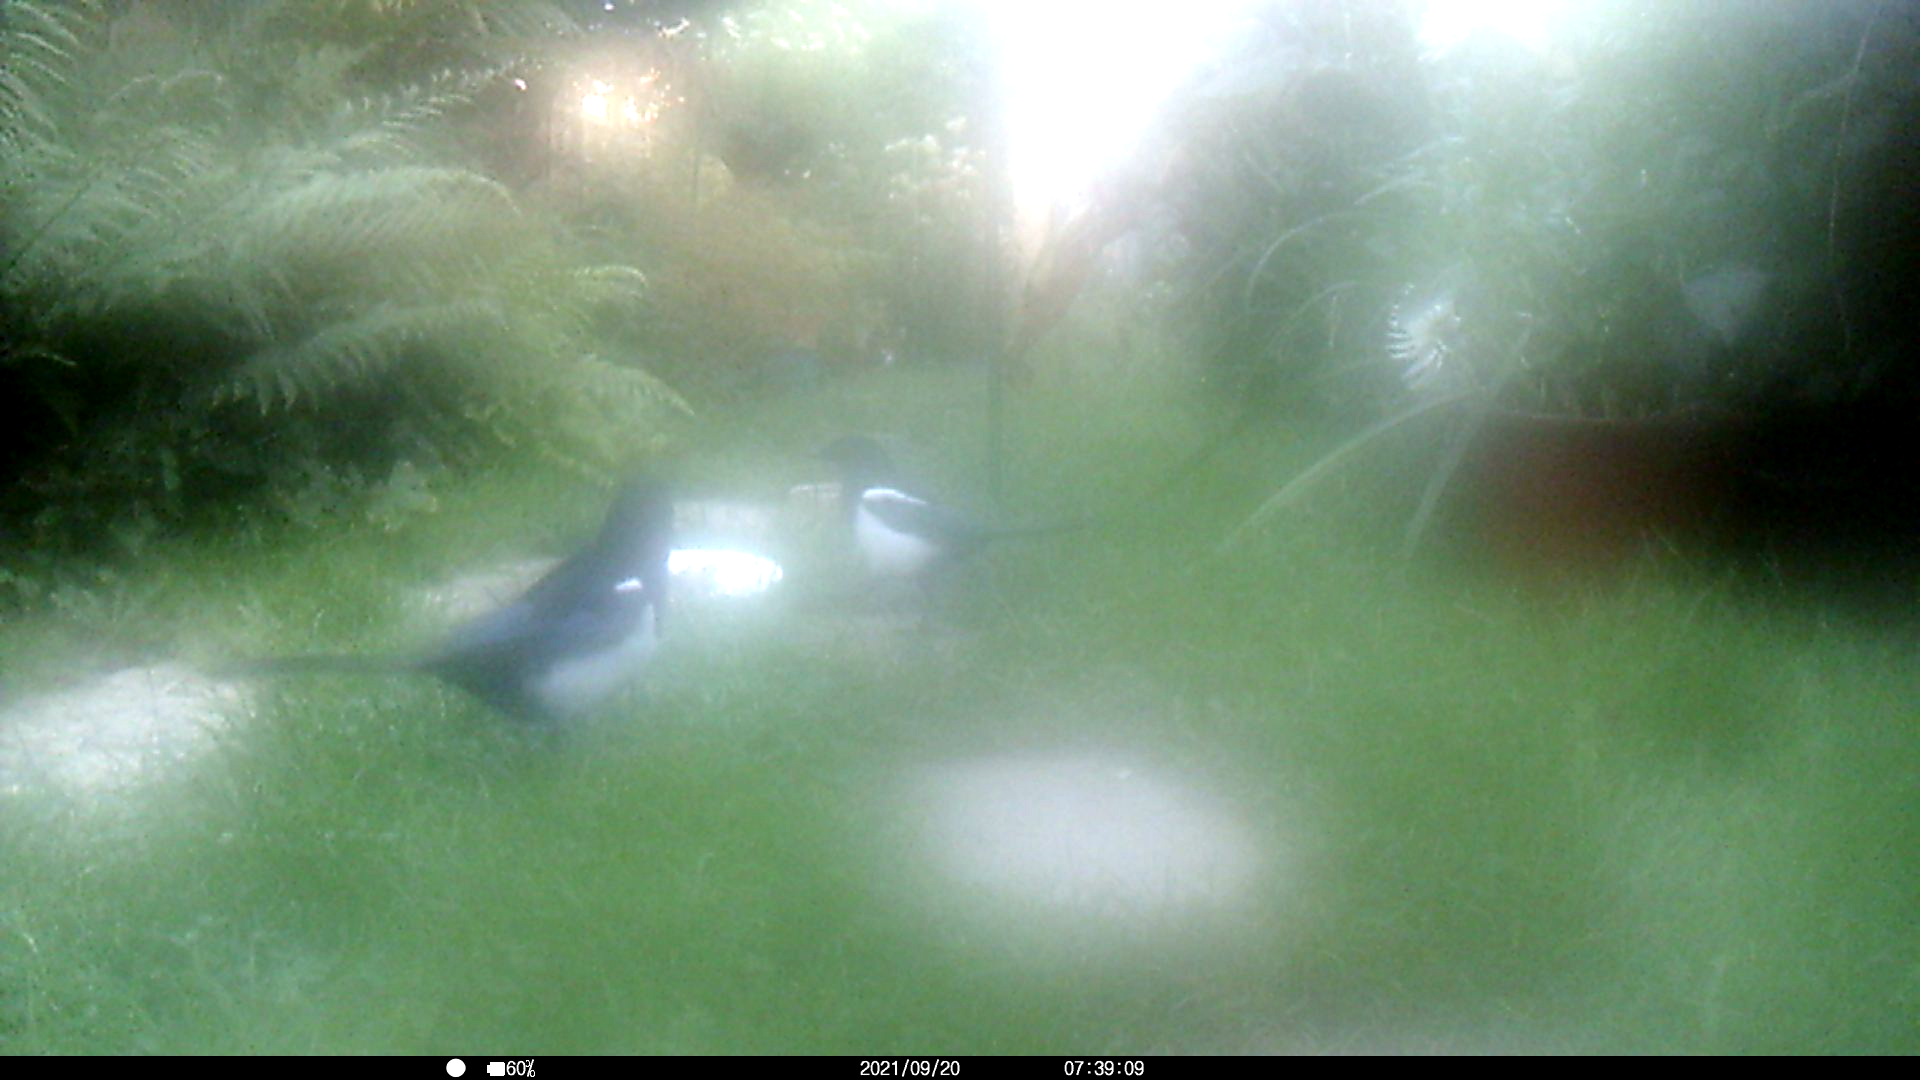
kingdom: Animalia
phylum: Chordata
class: Aves
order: Passeriformes
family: Corvidae
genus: Pica
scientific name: Pica pica
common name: Eurasian magpie
